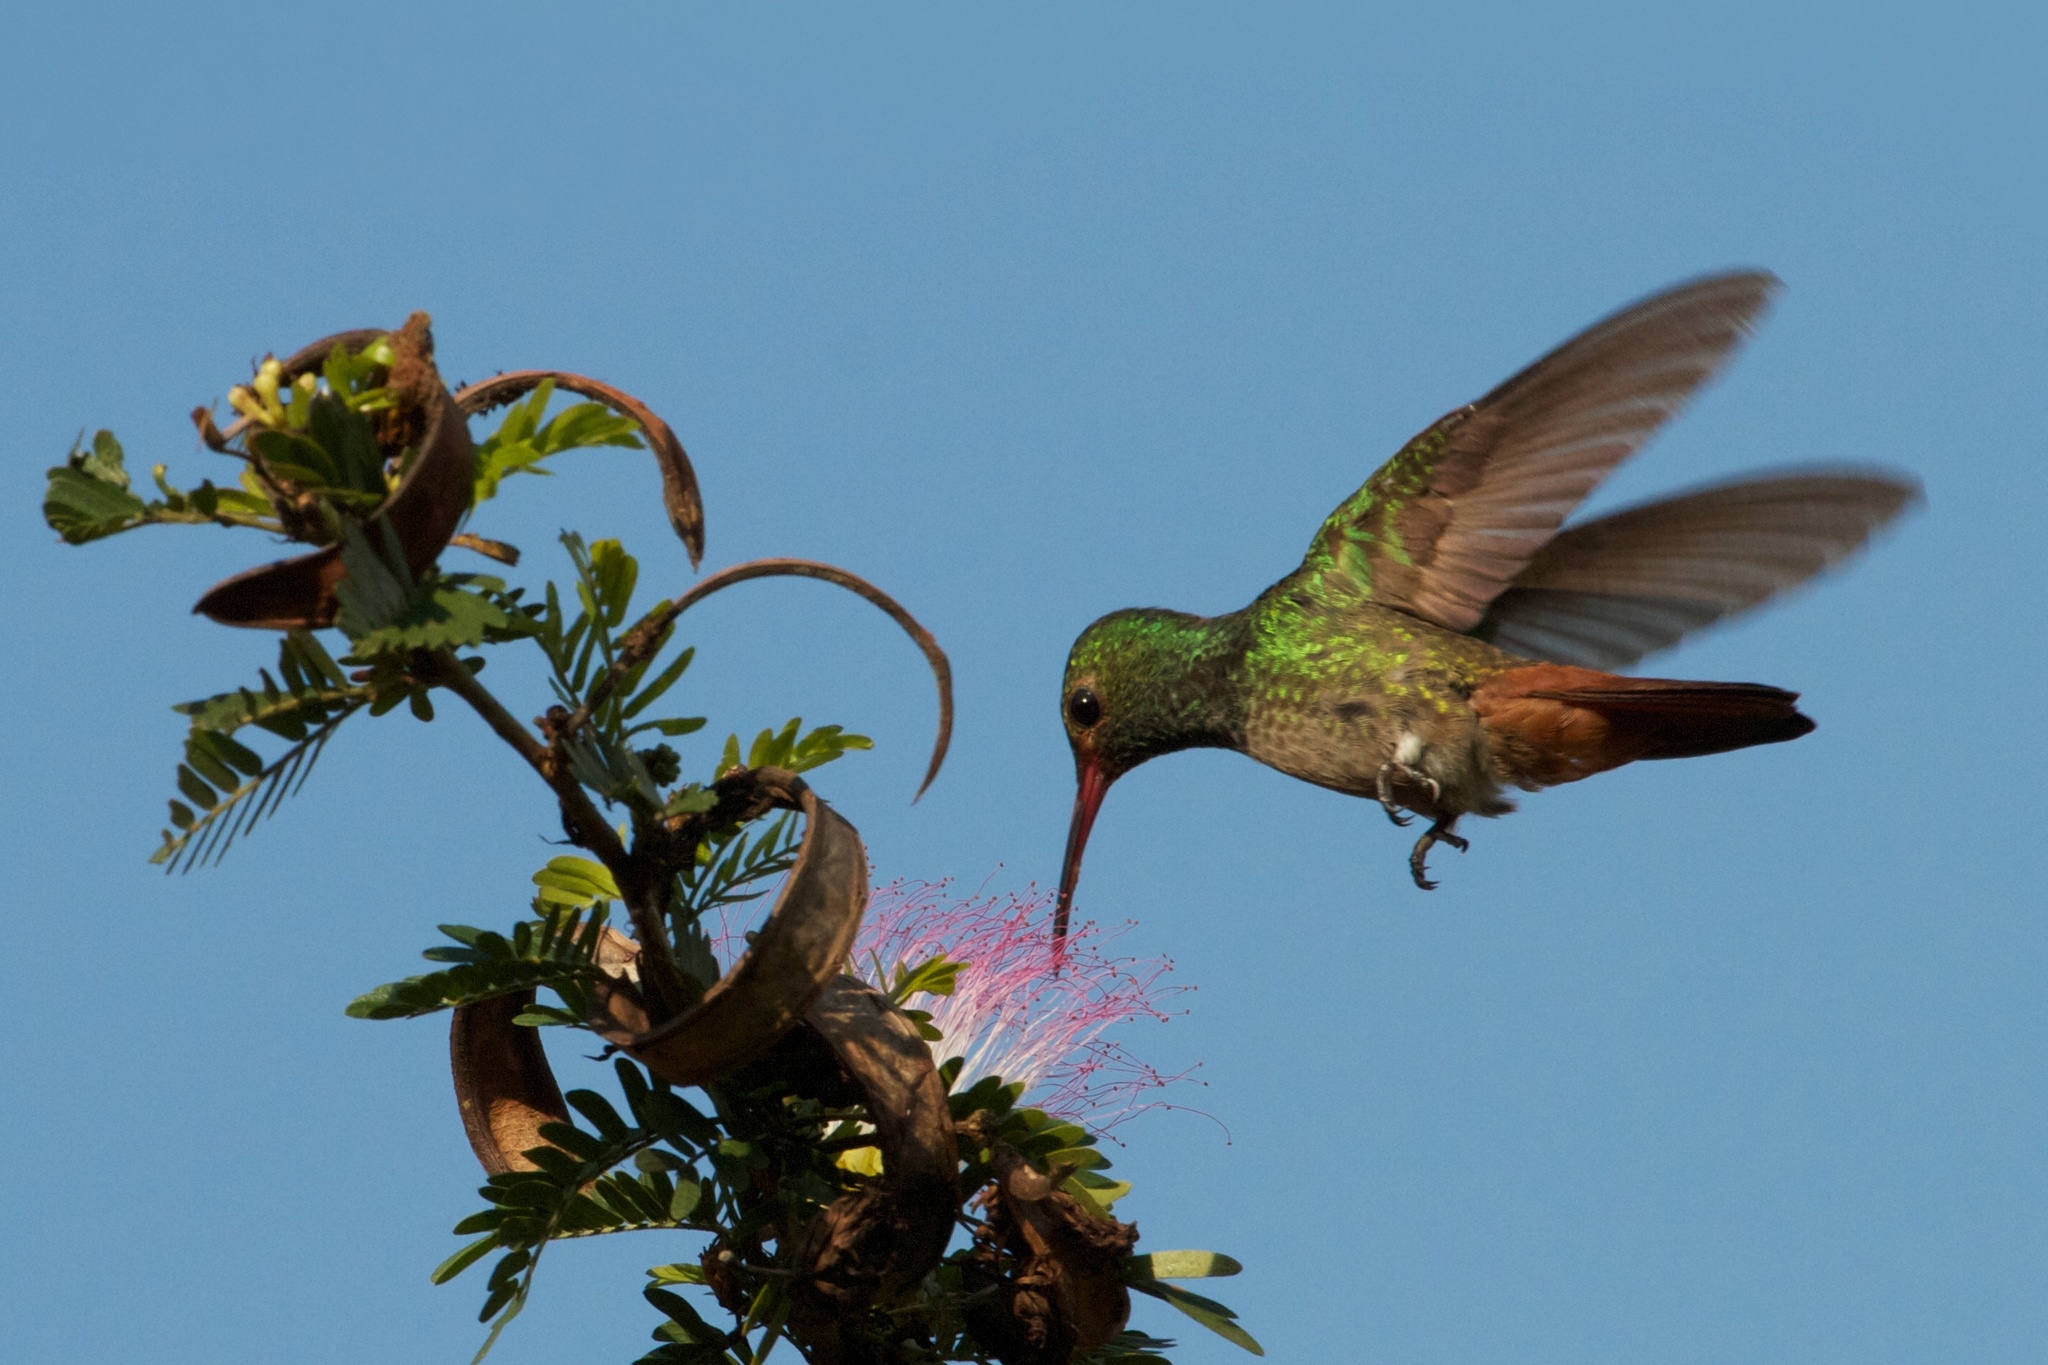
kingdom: Animalia
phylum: Chordata
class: Aves
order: Apodiformes
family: Trochilidae
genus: Amazilia
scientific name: Amazilia tzacatl
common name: Rufous-tailed hummingbird
